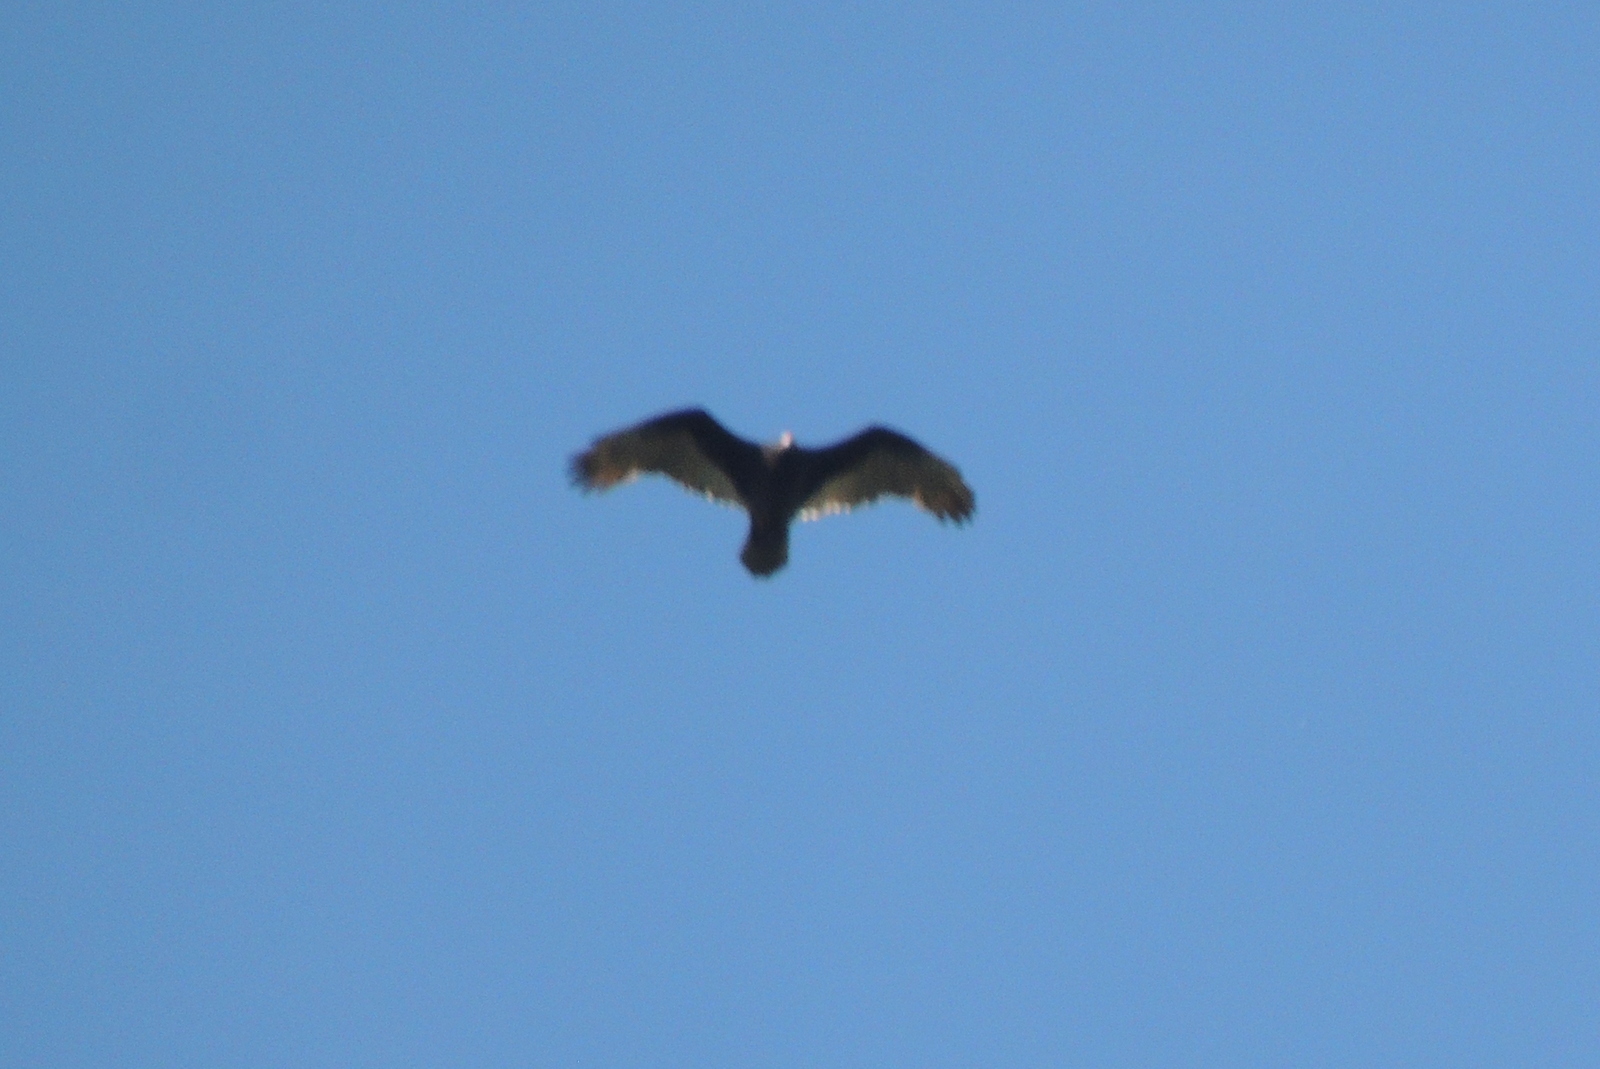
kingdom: Animalia
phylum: Chordata
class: Aves
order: Accipitriformes
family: Cathartidae
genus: Cathartes
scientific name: Cathartes aura
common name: Turkey vulture
